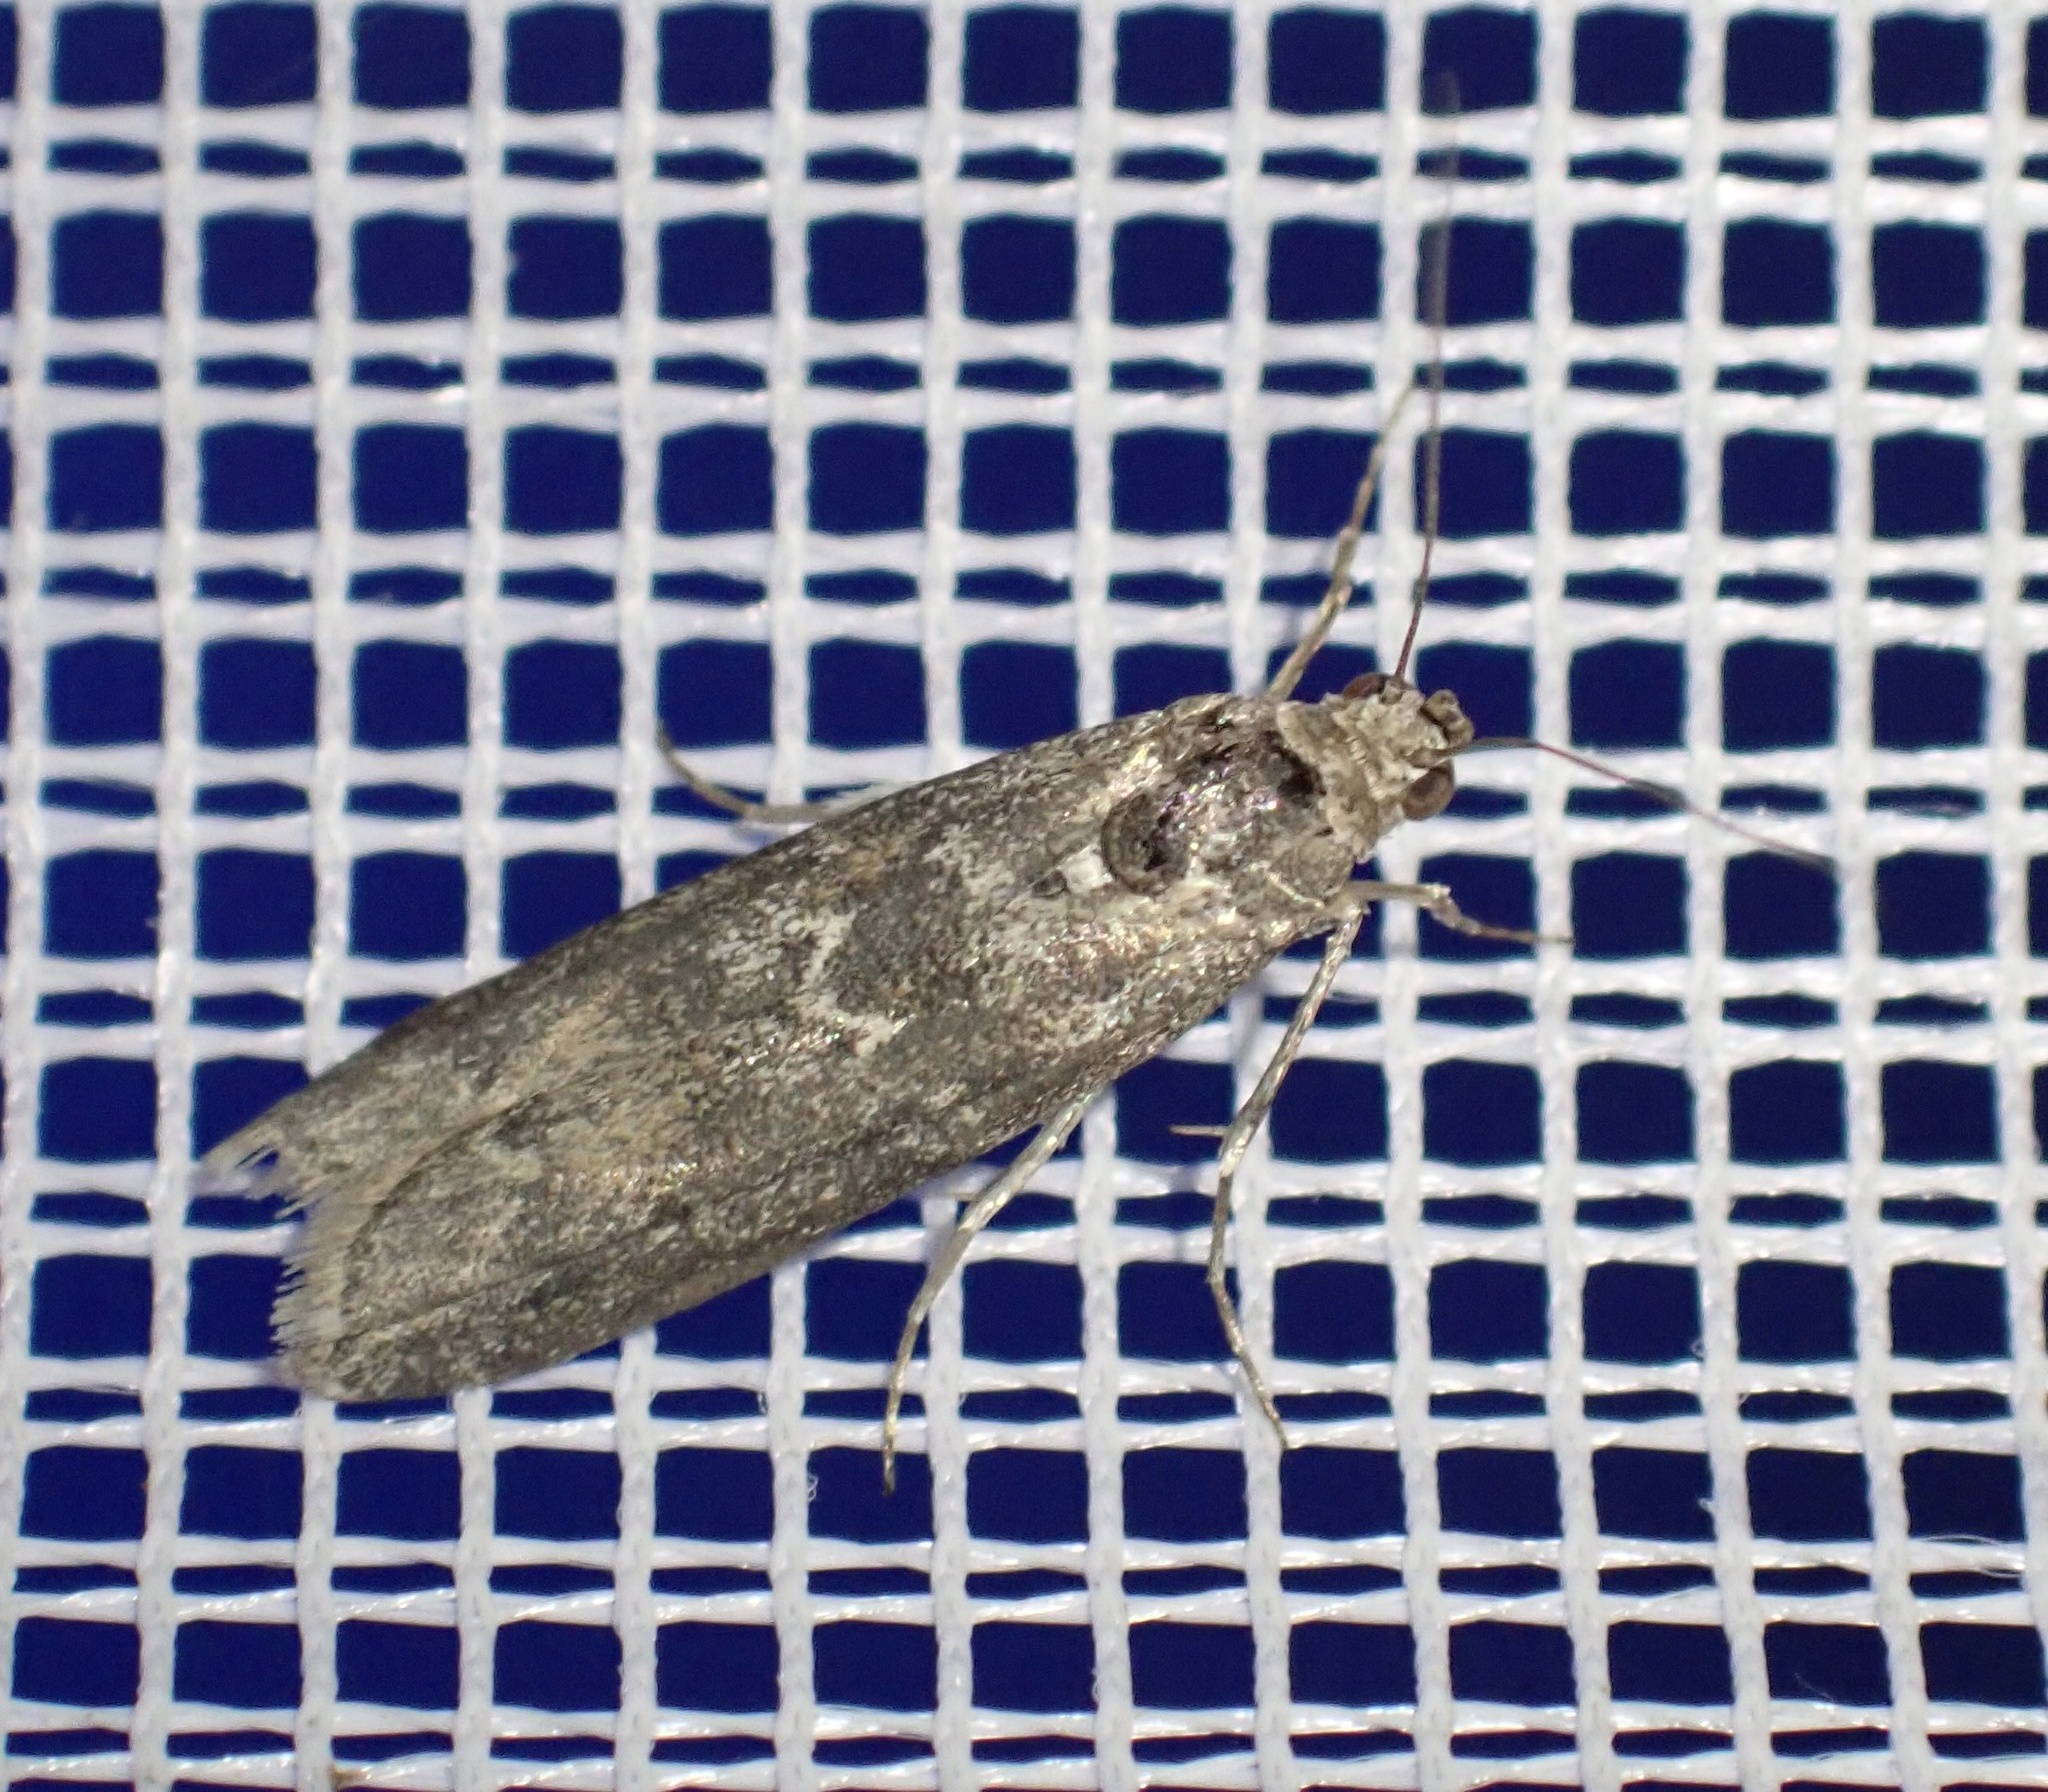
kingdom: Animalia
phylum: Arthropoda
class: Insecta
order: Lepidoptera
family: Pyralidae
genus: Ancylosis
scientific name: Ancylosis oblitella
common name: Saltmarsh knot-horn
